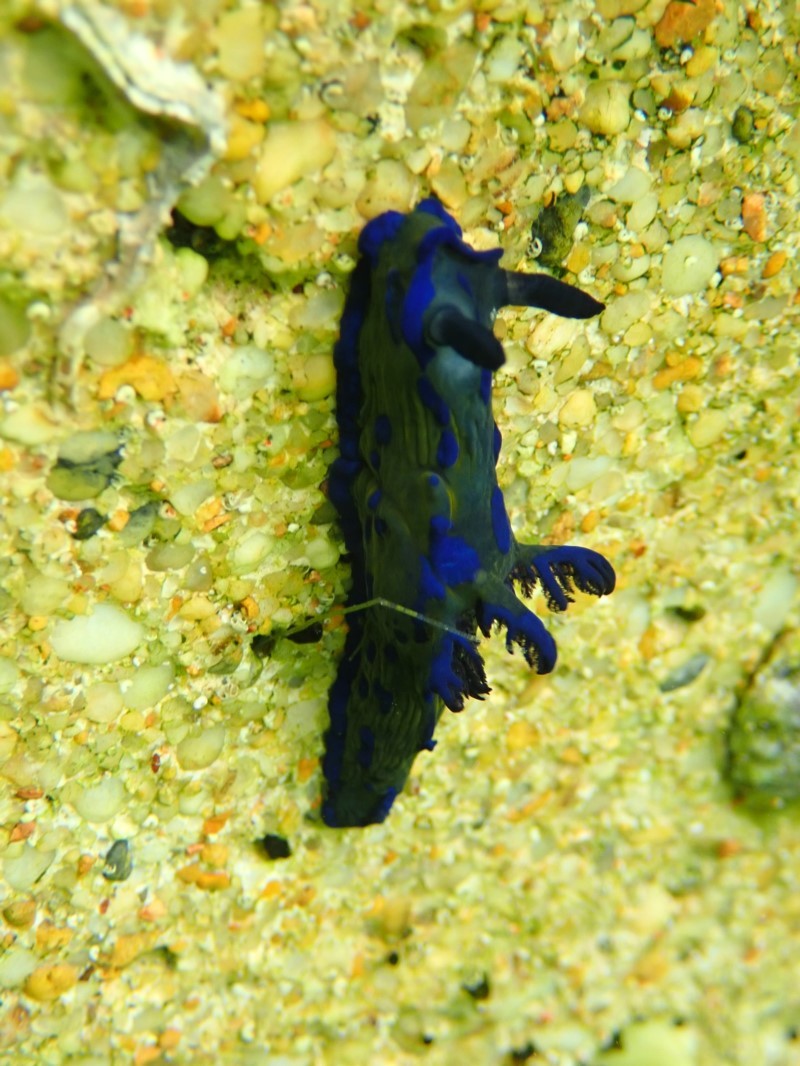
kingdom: Animalia
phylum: Mollusca
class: Gastropoda
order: Nudibranchia
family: Polyceridae
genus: Tambja
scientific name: Tambja verconis
